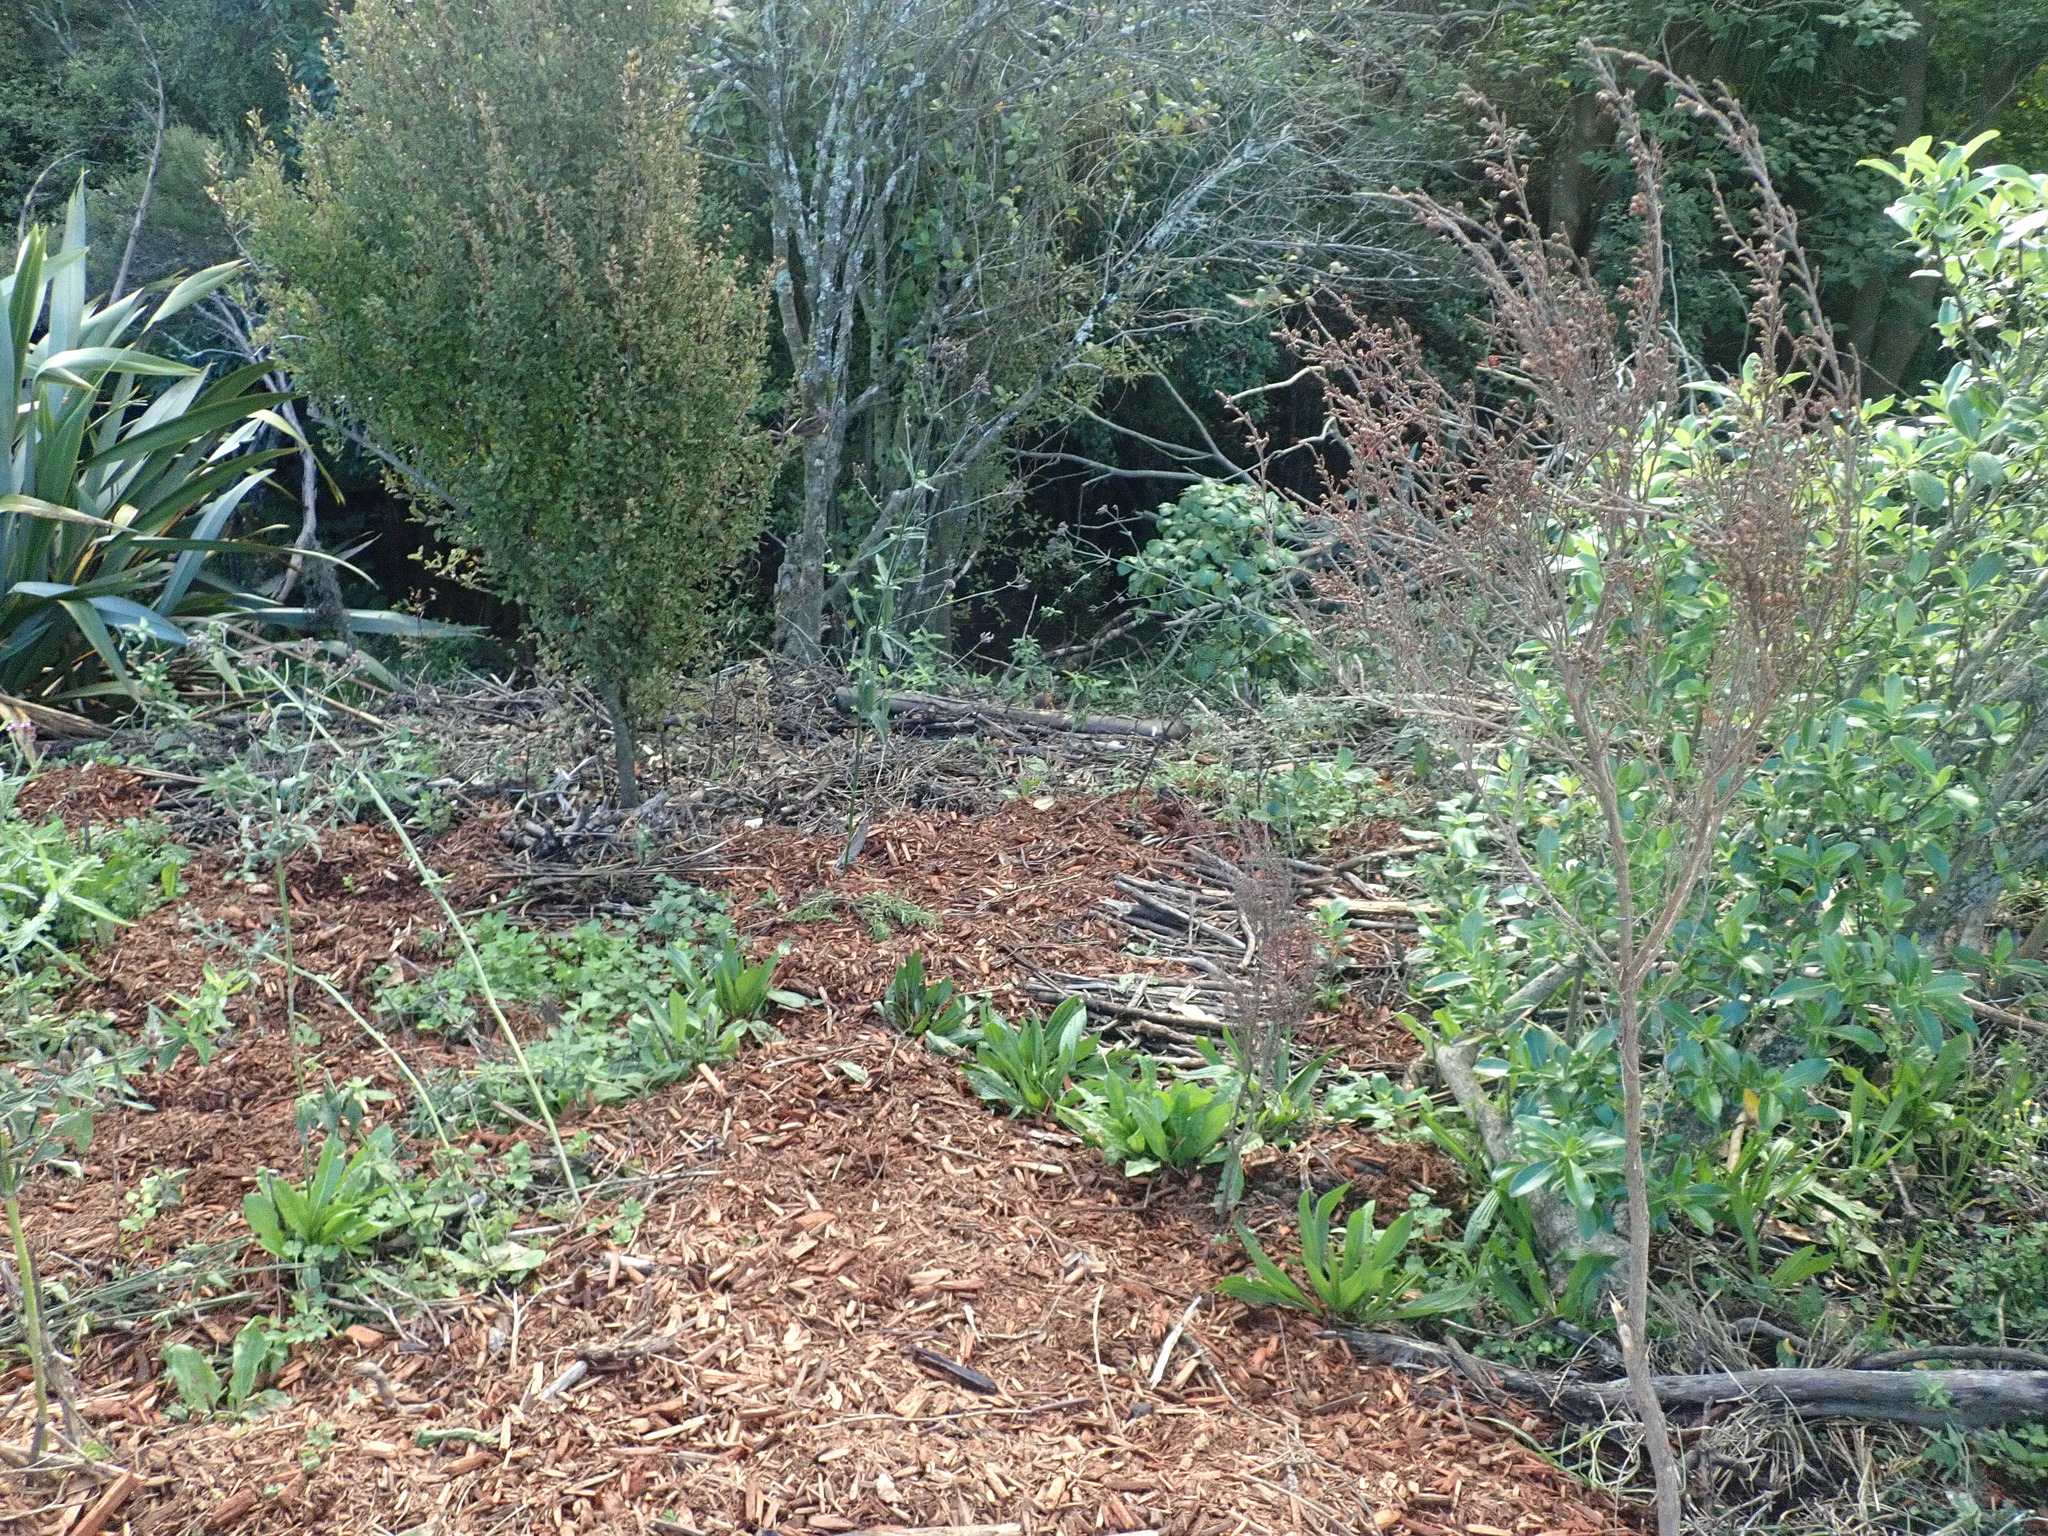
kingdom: Plantae
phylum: Tracheophyta
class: Magnoliopsida
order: Lamiales
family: Plantaginaceae
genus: Plantago
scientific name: Plantago lanceolata
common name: Ribwort plantain
